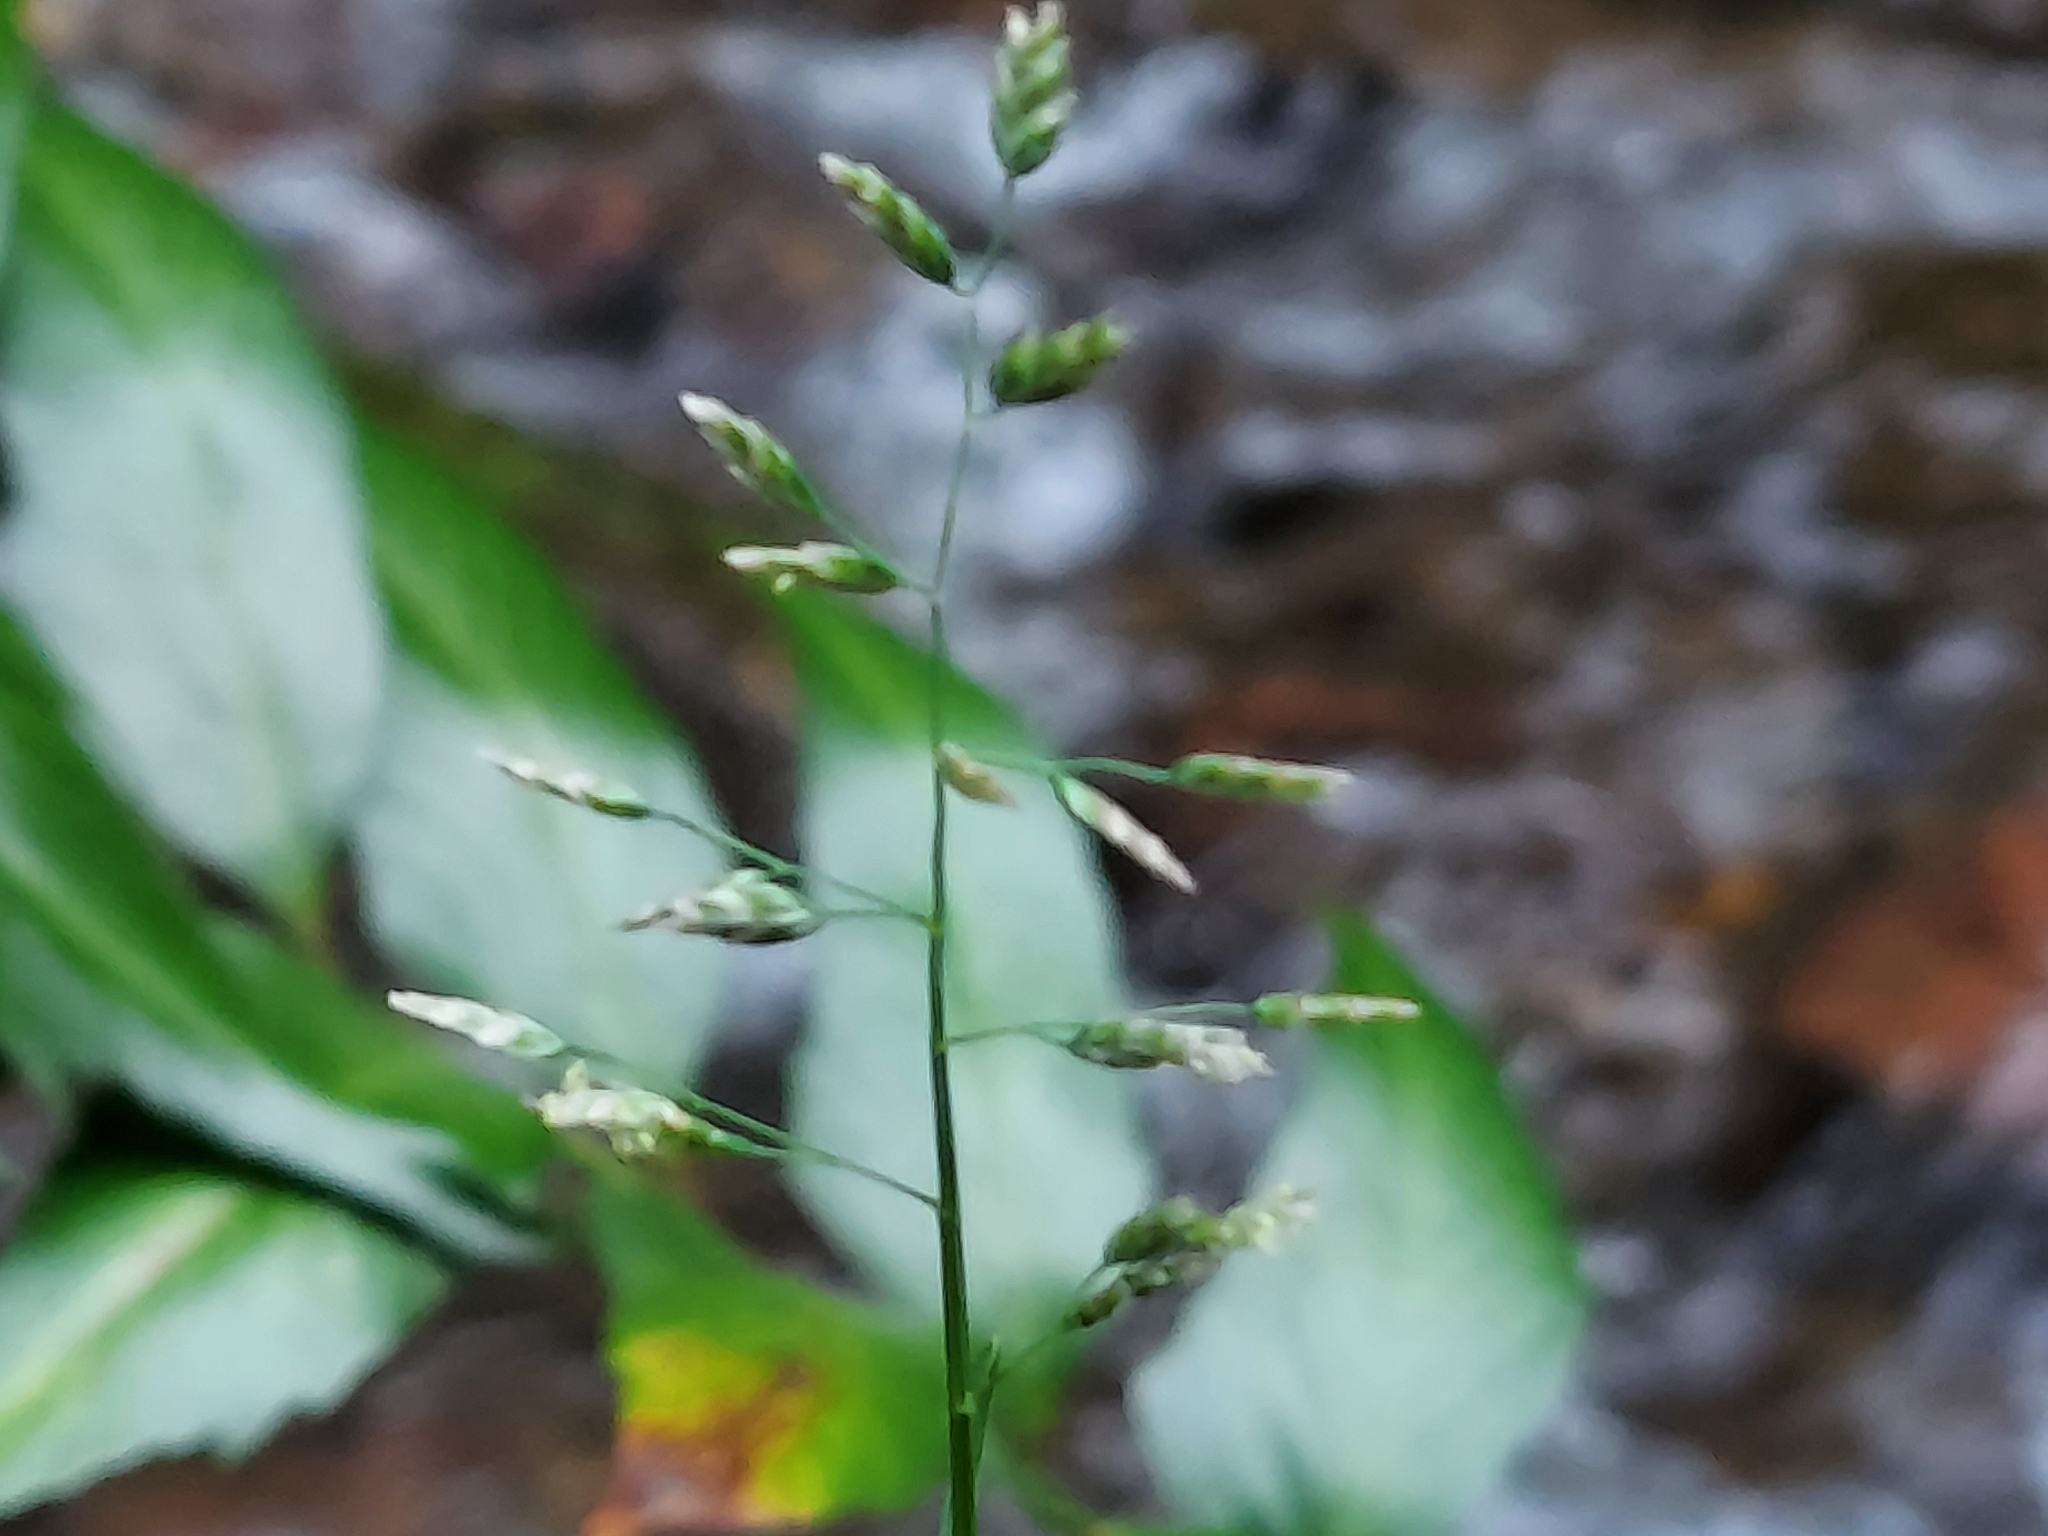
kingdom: Plantae
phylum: Tracheophyta
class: Liliopsida
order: Poales
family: Poaceae
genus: Poa
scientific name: Poa annua
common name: Annual bluegrass
